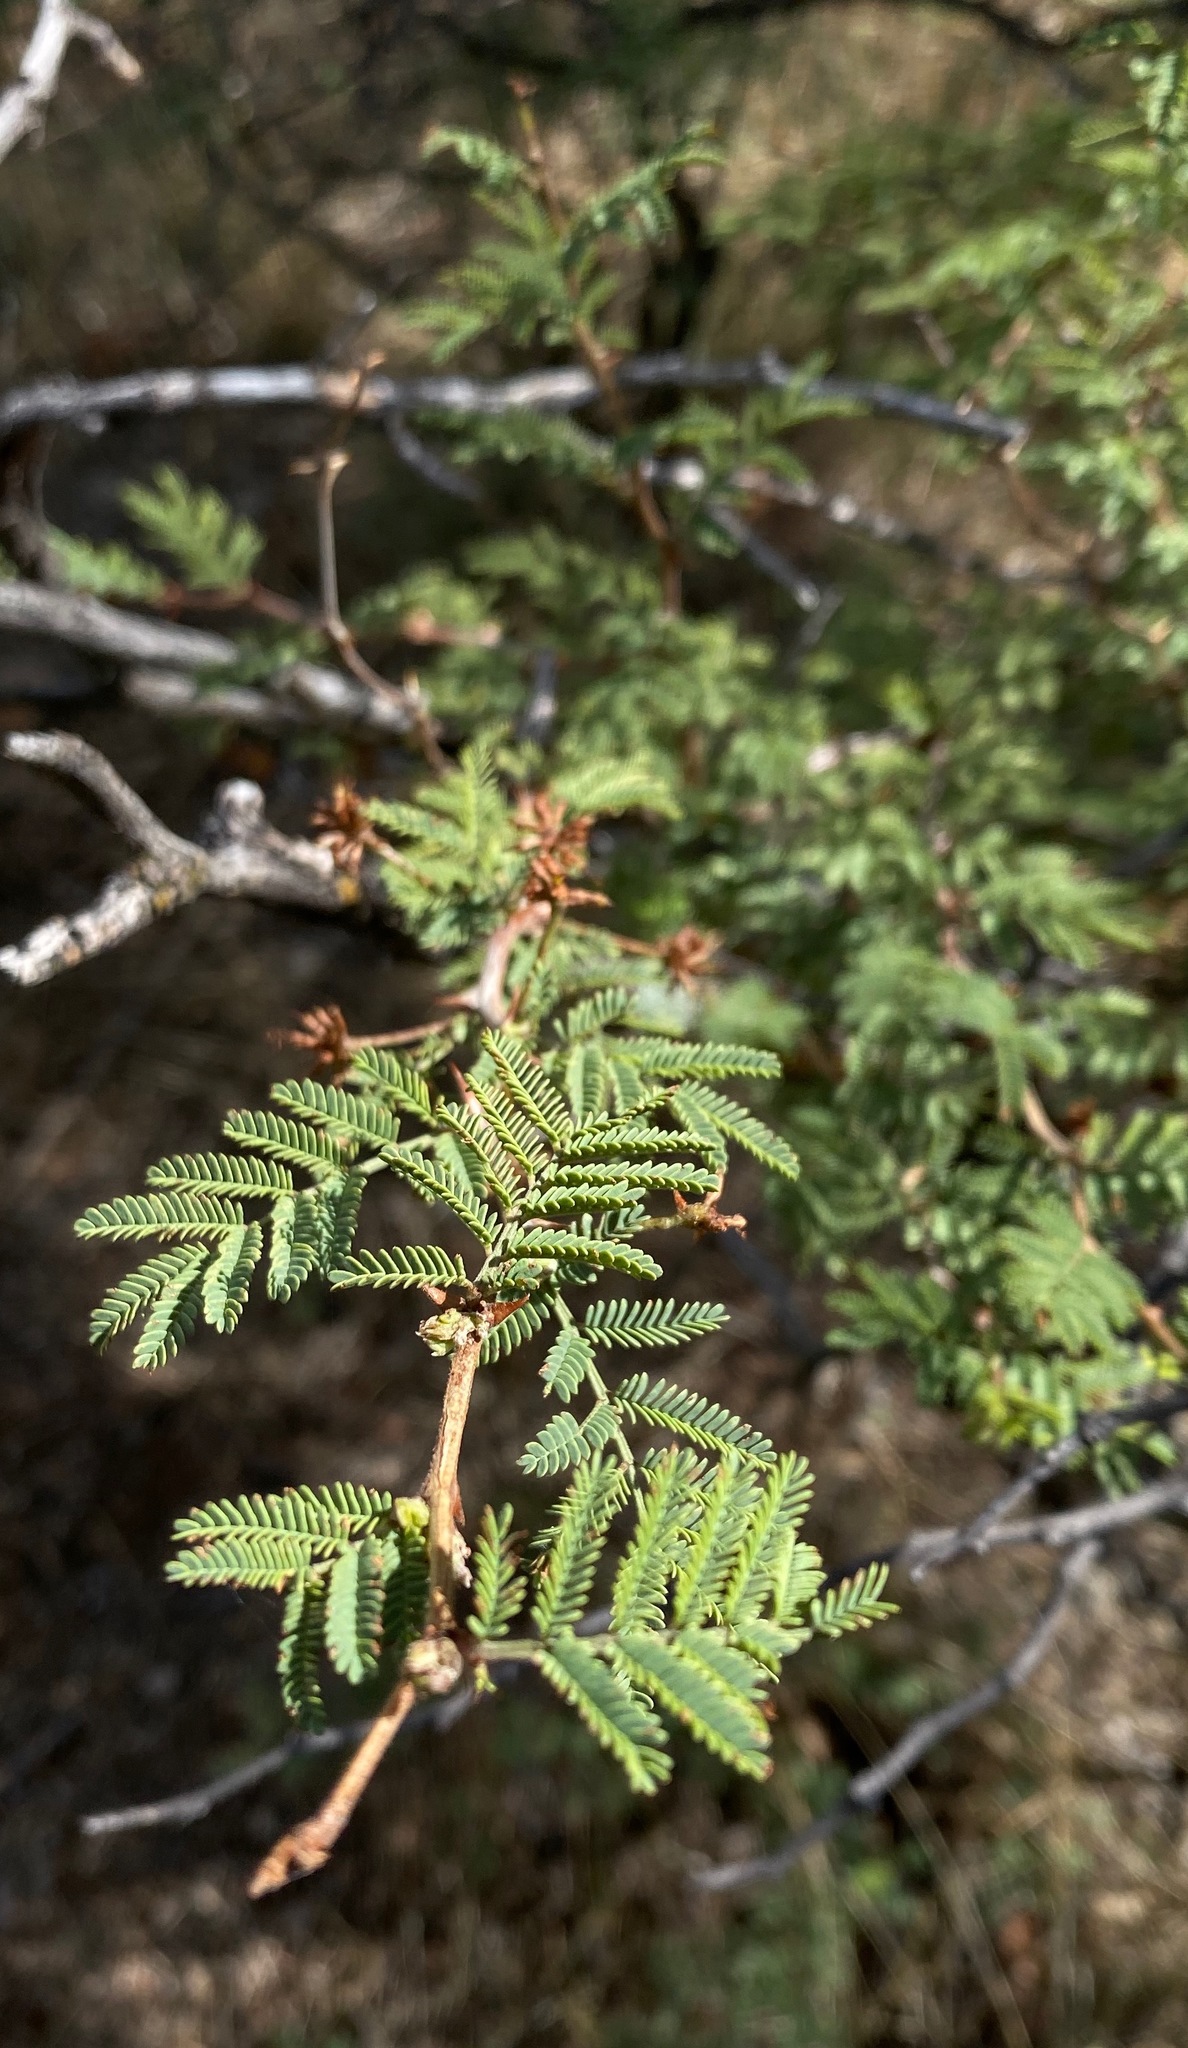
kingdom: Plantae
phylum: Tracheophyta
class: Magnoliopsida
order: Fabales
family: Fabaceae
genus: Mimosa
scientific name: Mimosa biuncifera
